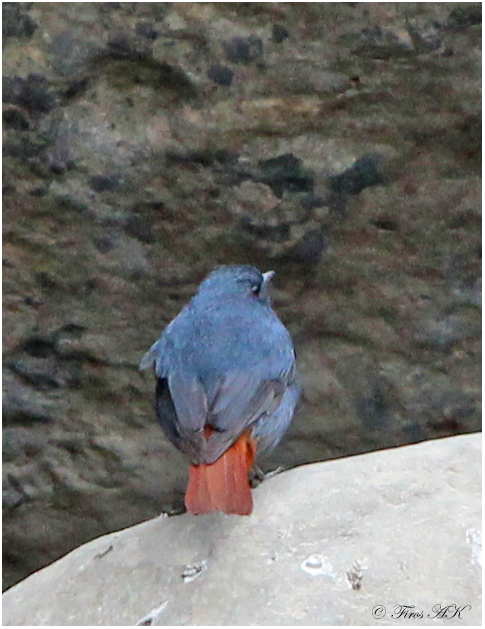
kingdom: Animalia
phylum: Chordata
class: Aves
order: Passeriformes
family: Muscicapidae
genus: Phoenicurus
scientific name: Phoenicurus fuliginosus
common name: Plumbeous water redstart
